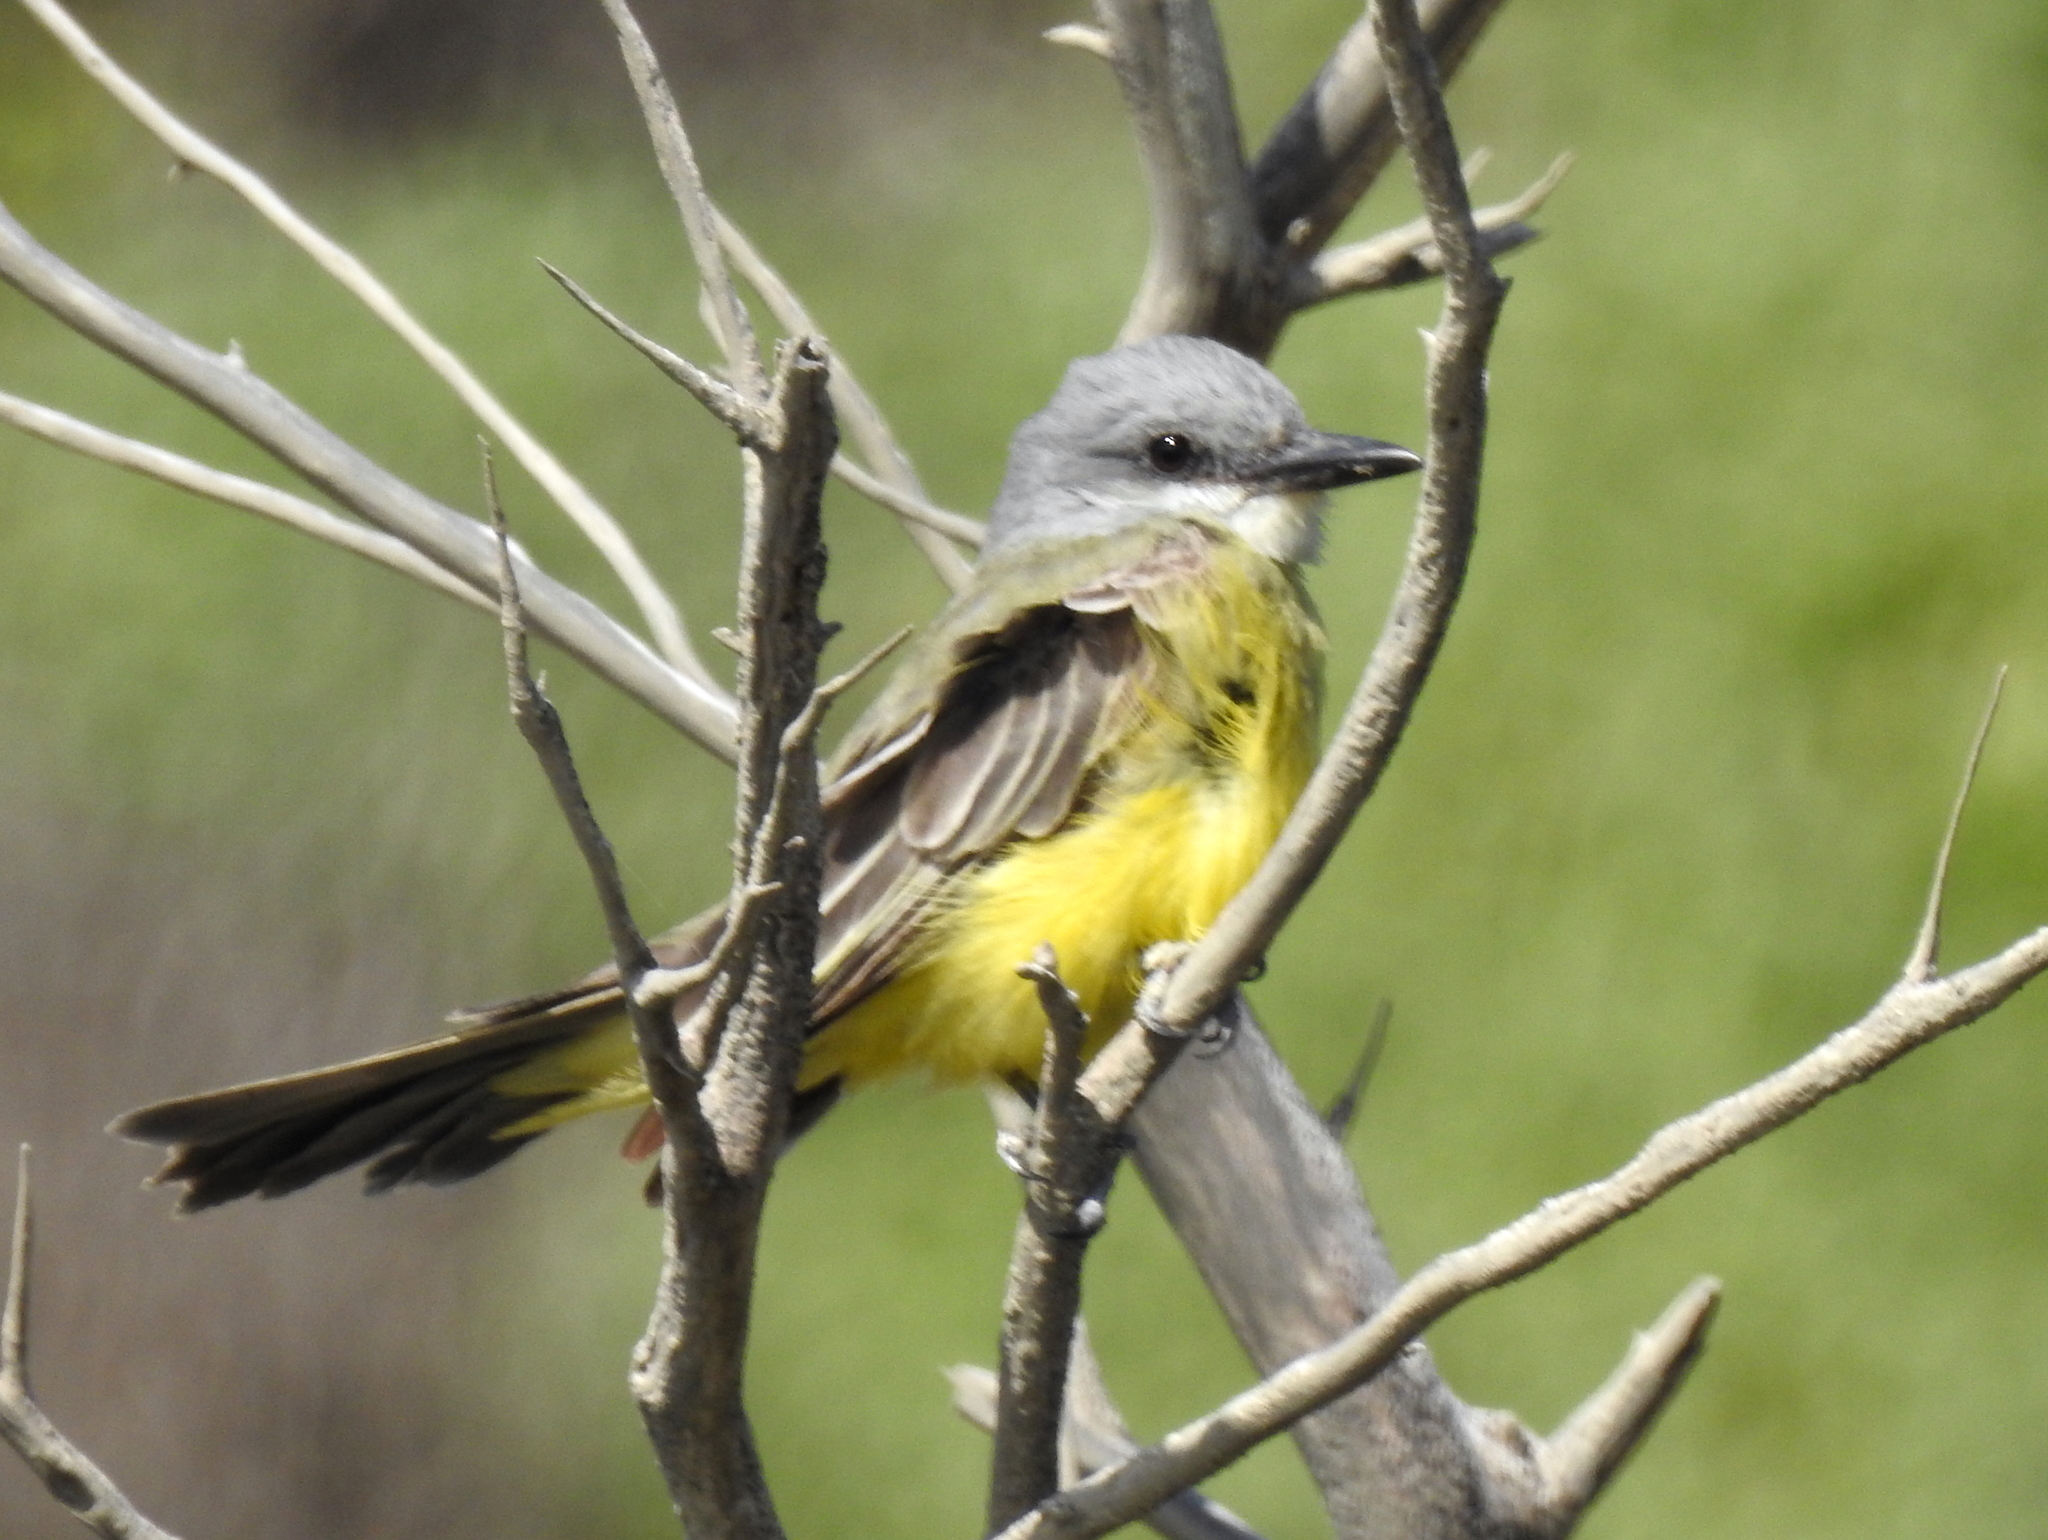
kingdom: Animalia
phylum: Chordata
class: Aves
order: Passeriformes
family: Tyrannidae
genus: Tyrannus
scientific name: Tyrannus melancholicus
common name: Tropical kingbird
